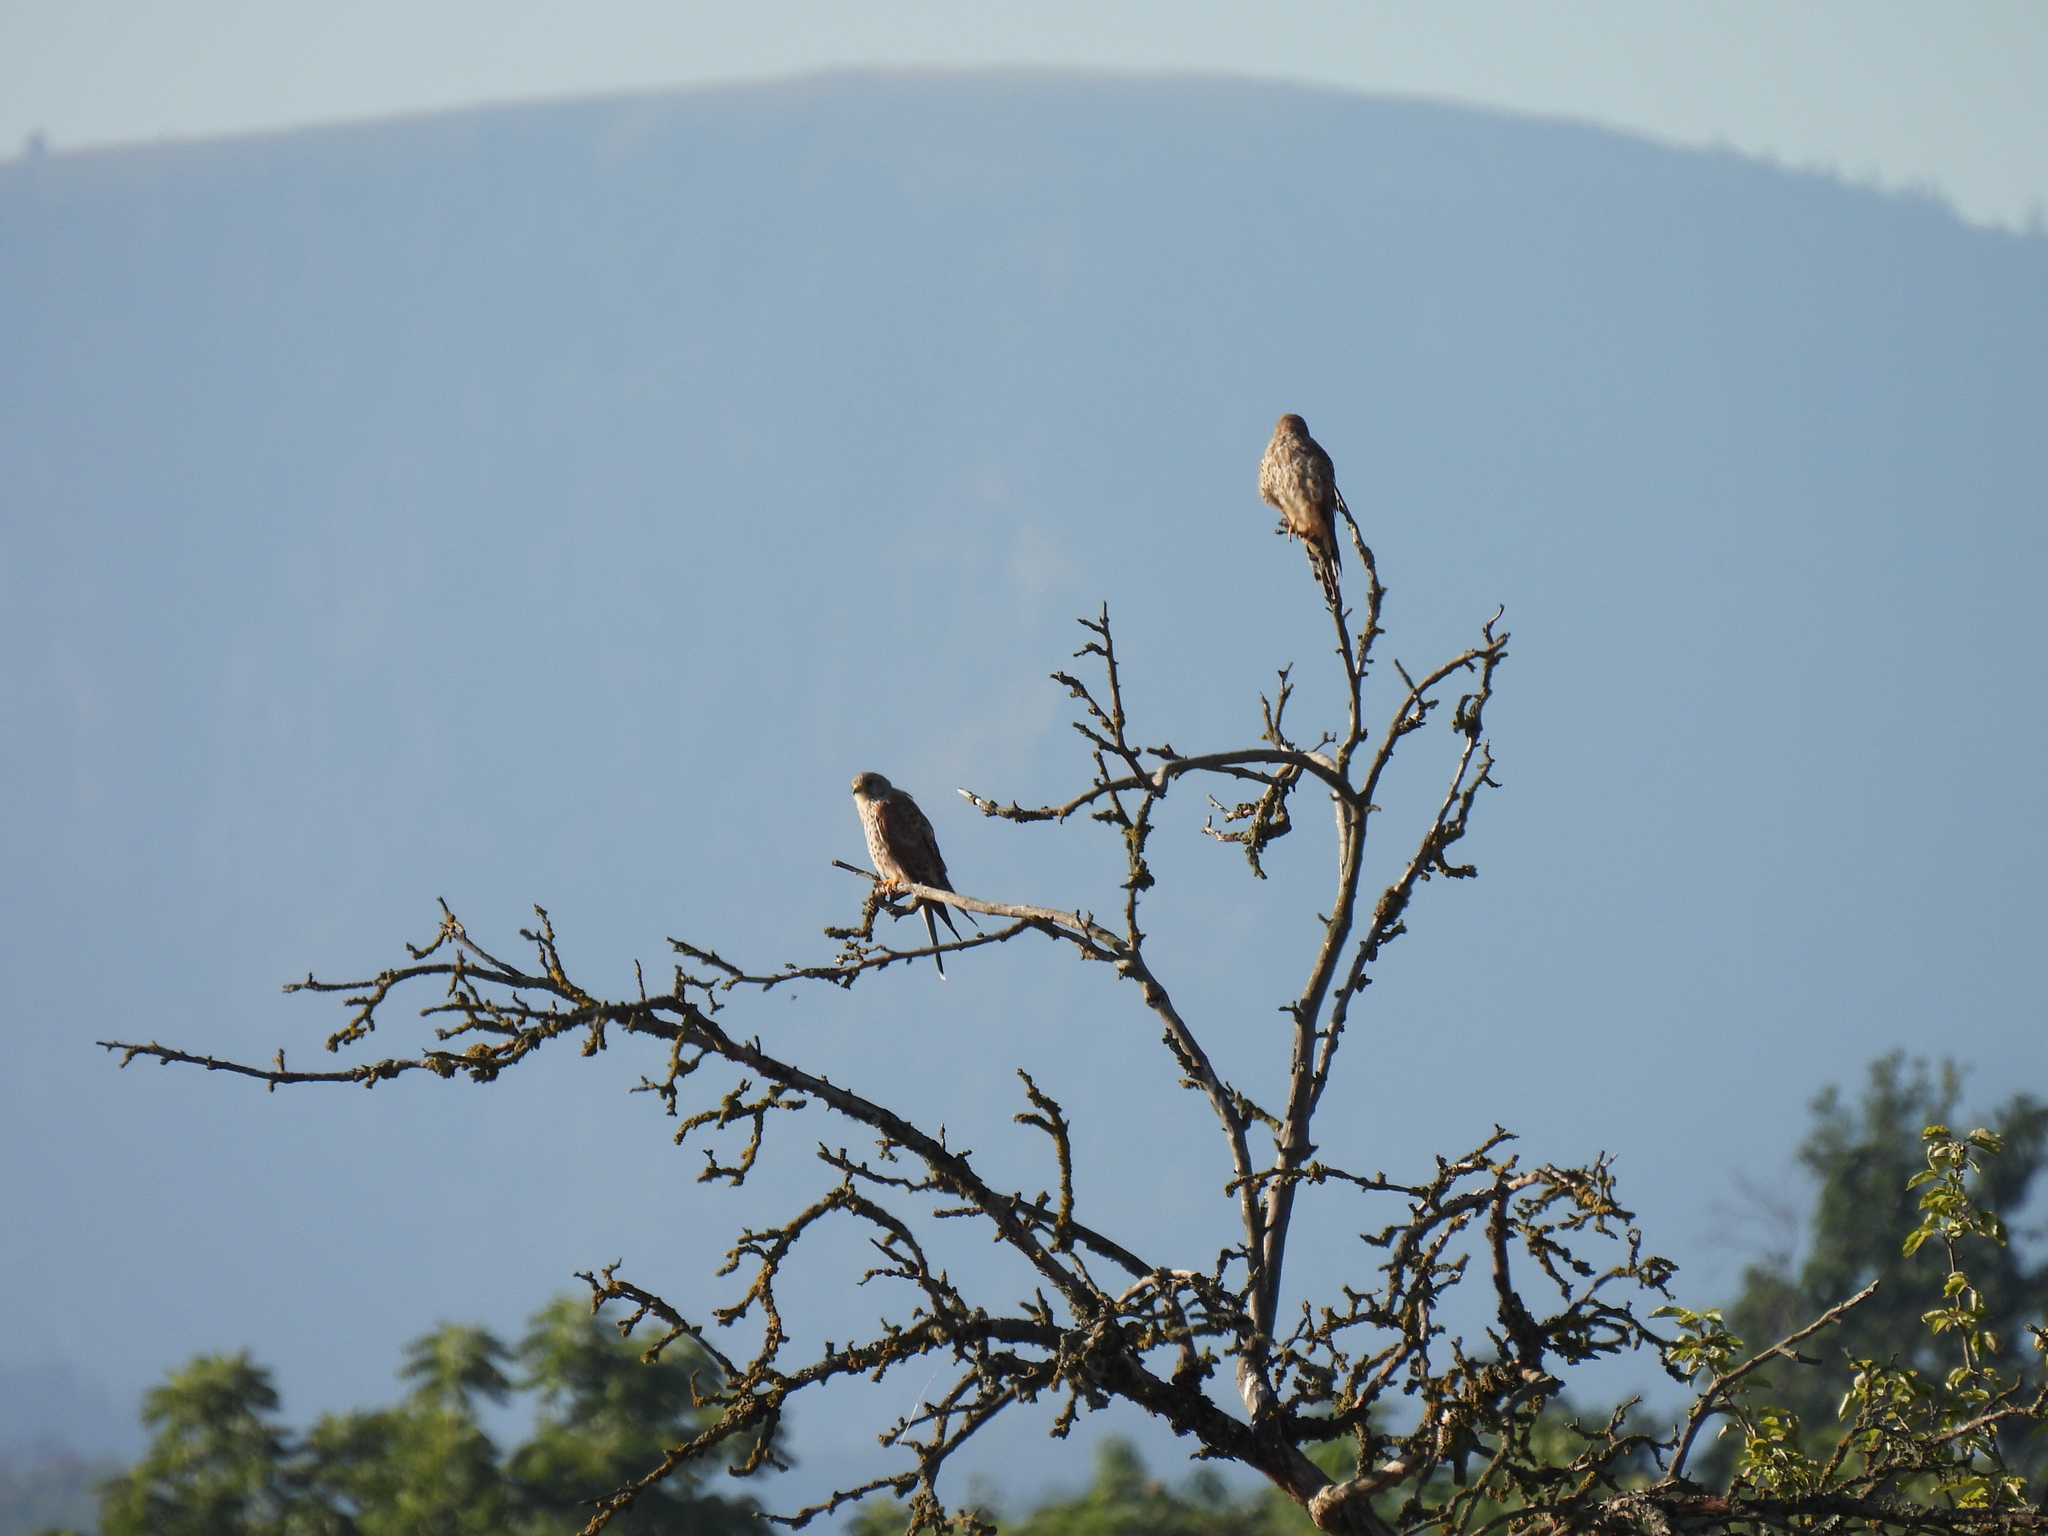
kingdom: Animalia
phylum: Chordata
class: Aves
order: Falconiformes
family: Falconidae
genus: Falco
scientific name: Falco tinnunculus
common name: Common kestrel
